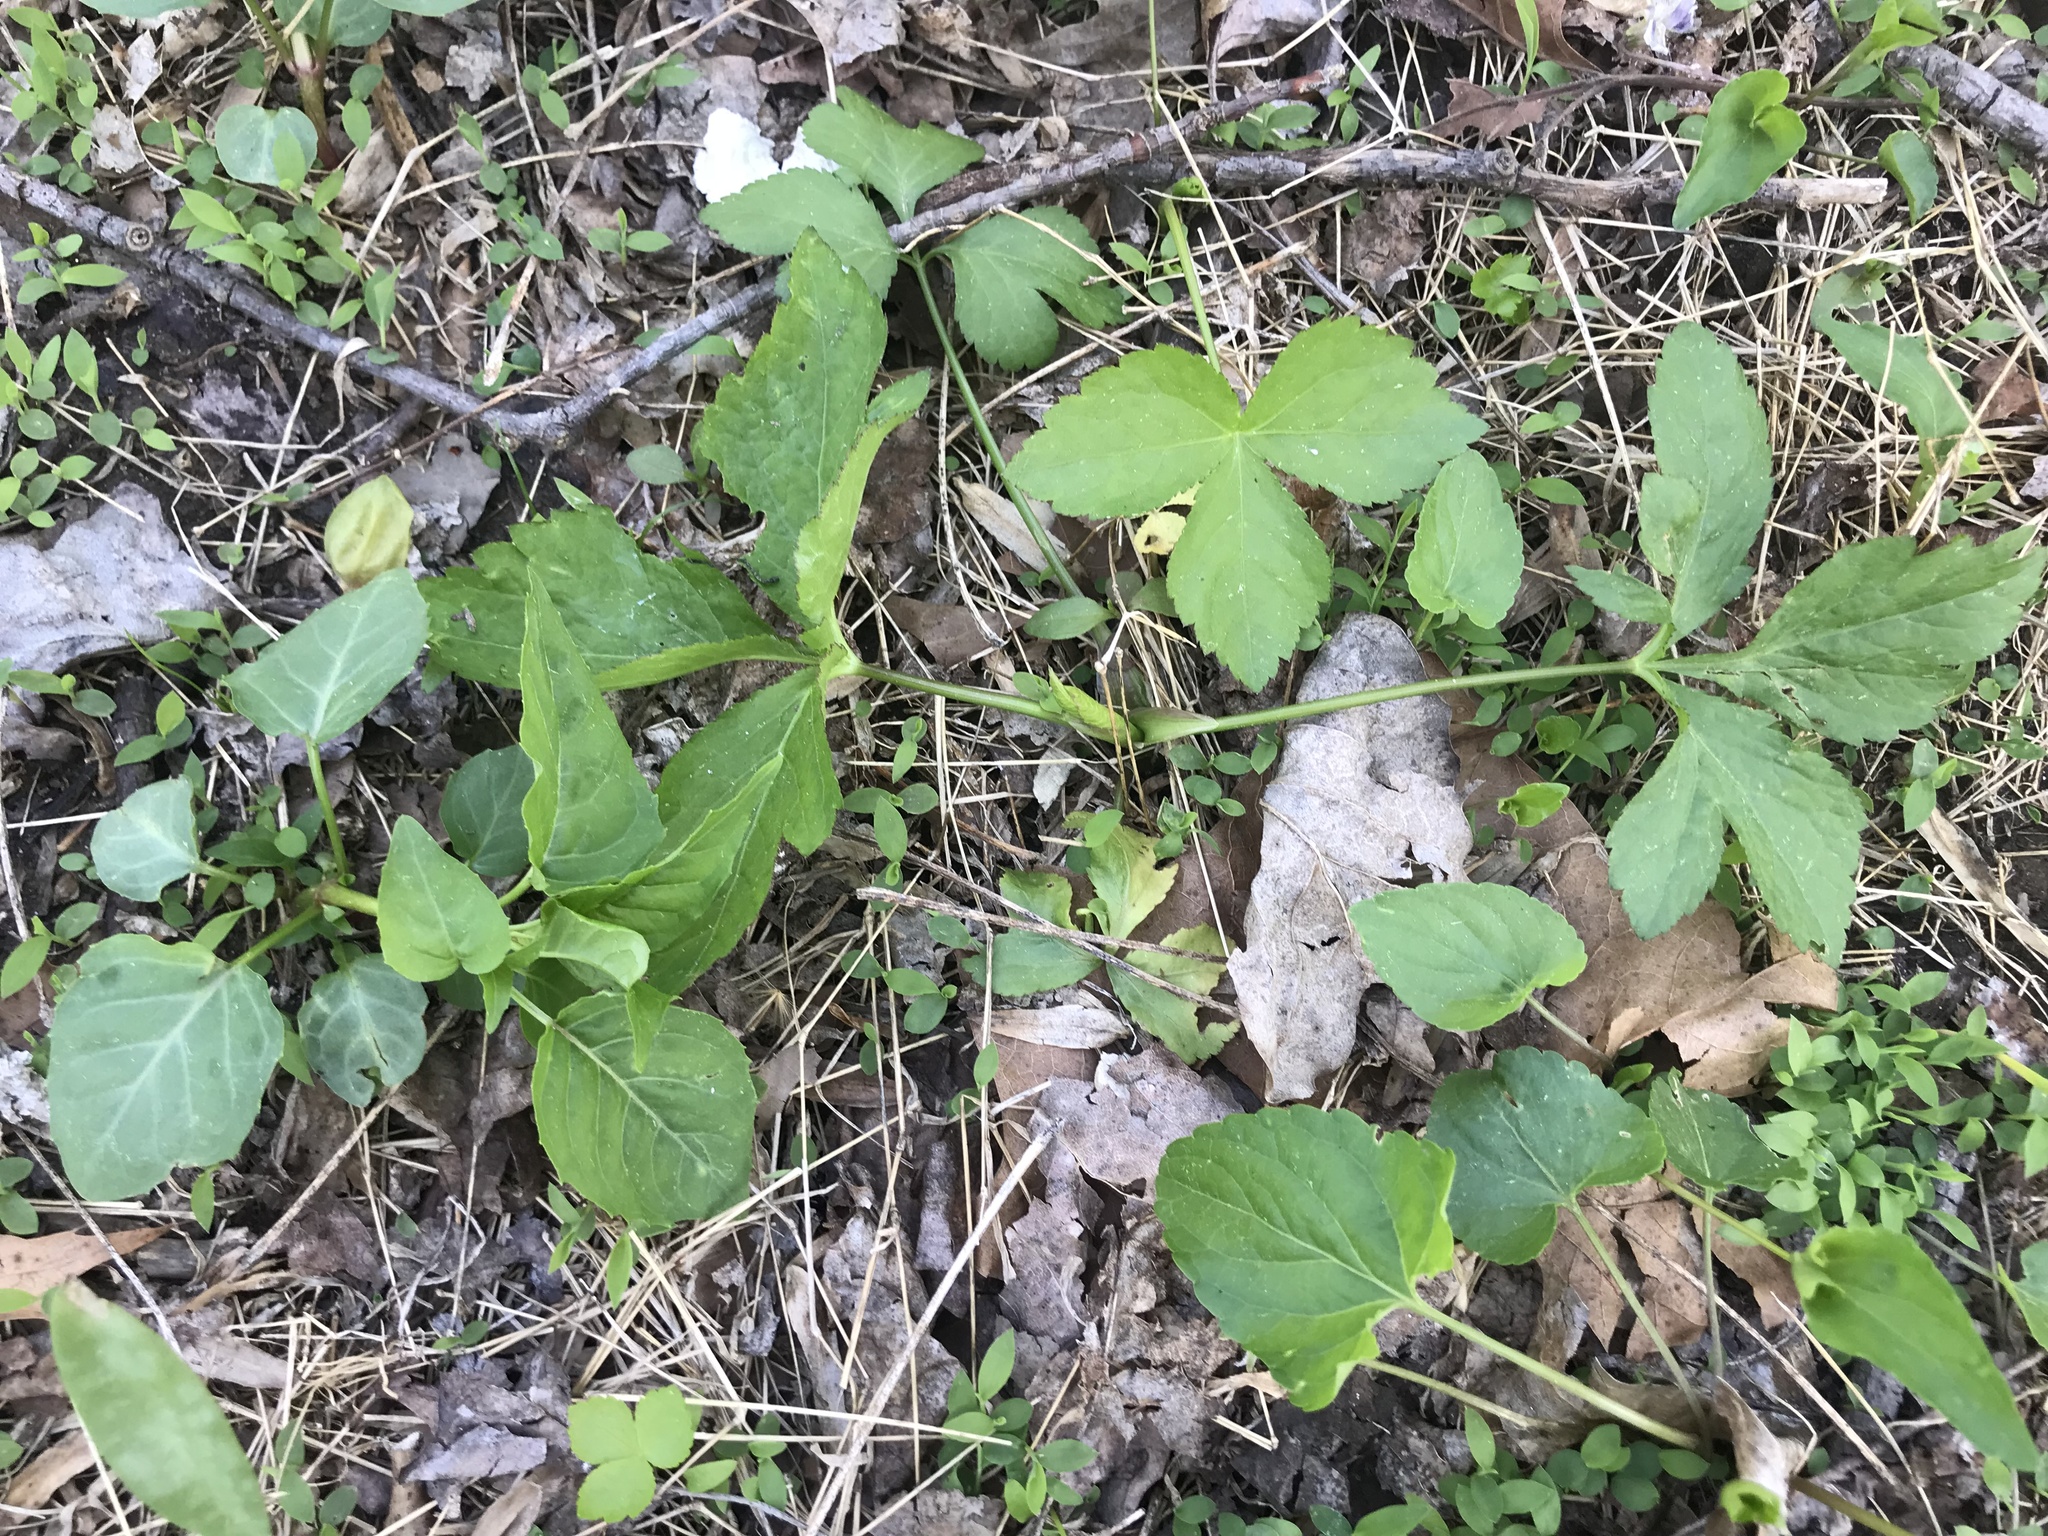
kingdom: Plantae
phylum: Tracheophyta
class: Magnoliopsida
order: Apiales
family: Apiaceae
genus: Cryptotaenia
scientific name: Cryptotaenia canadensis
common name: Honewort
